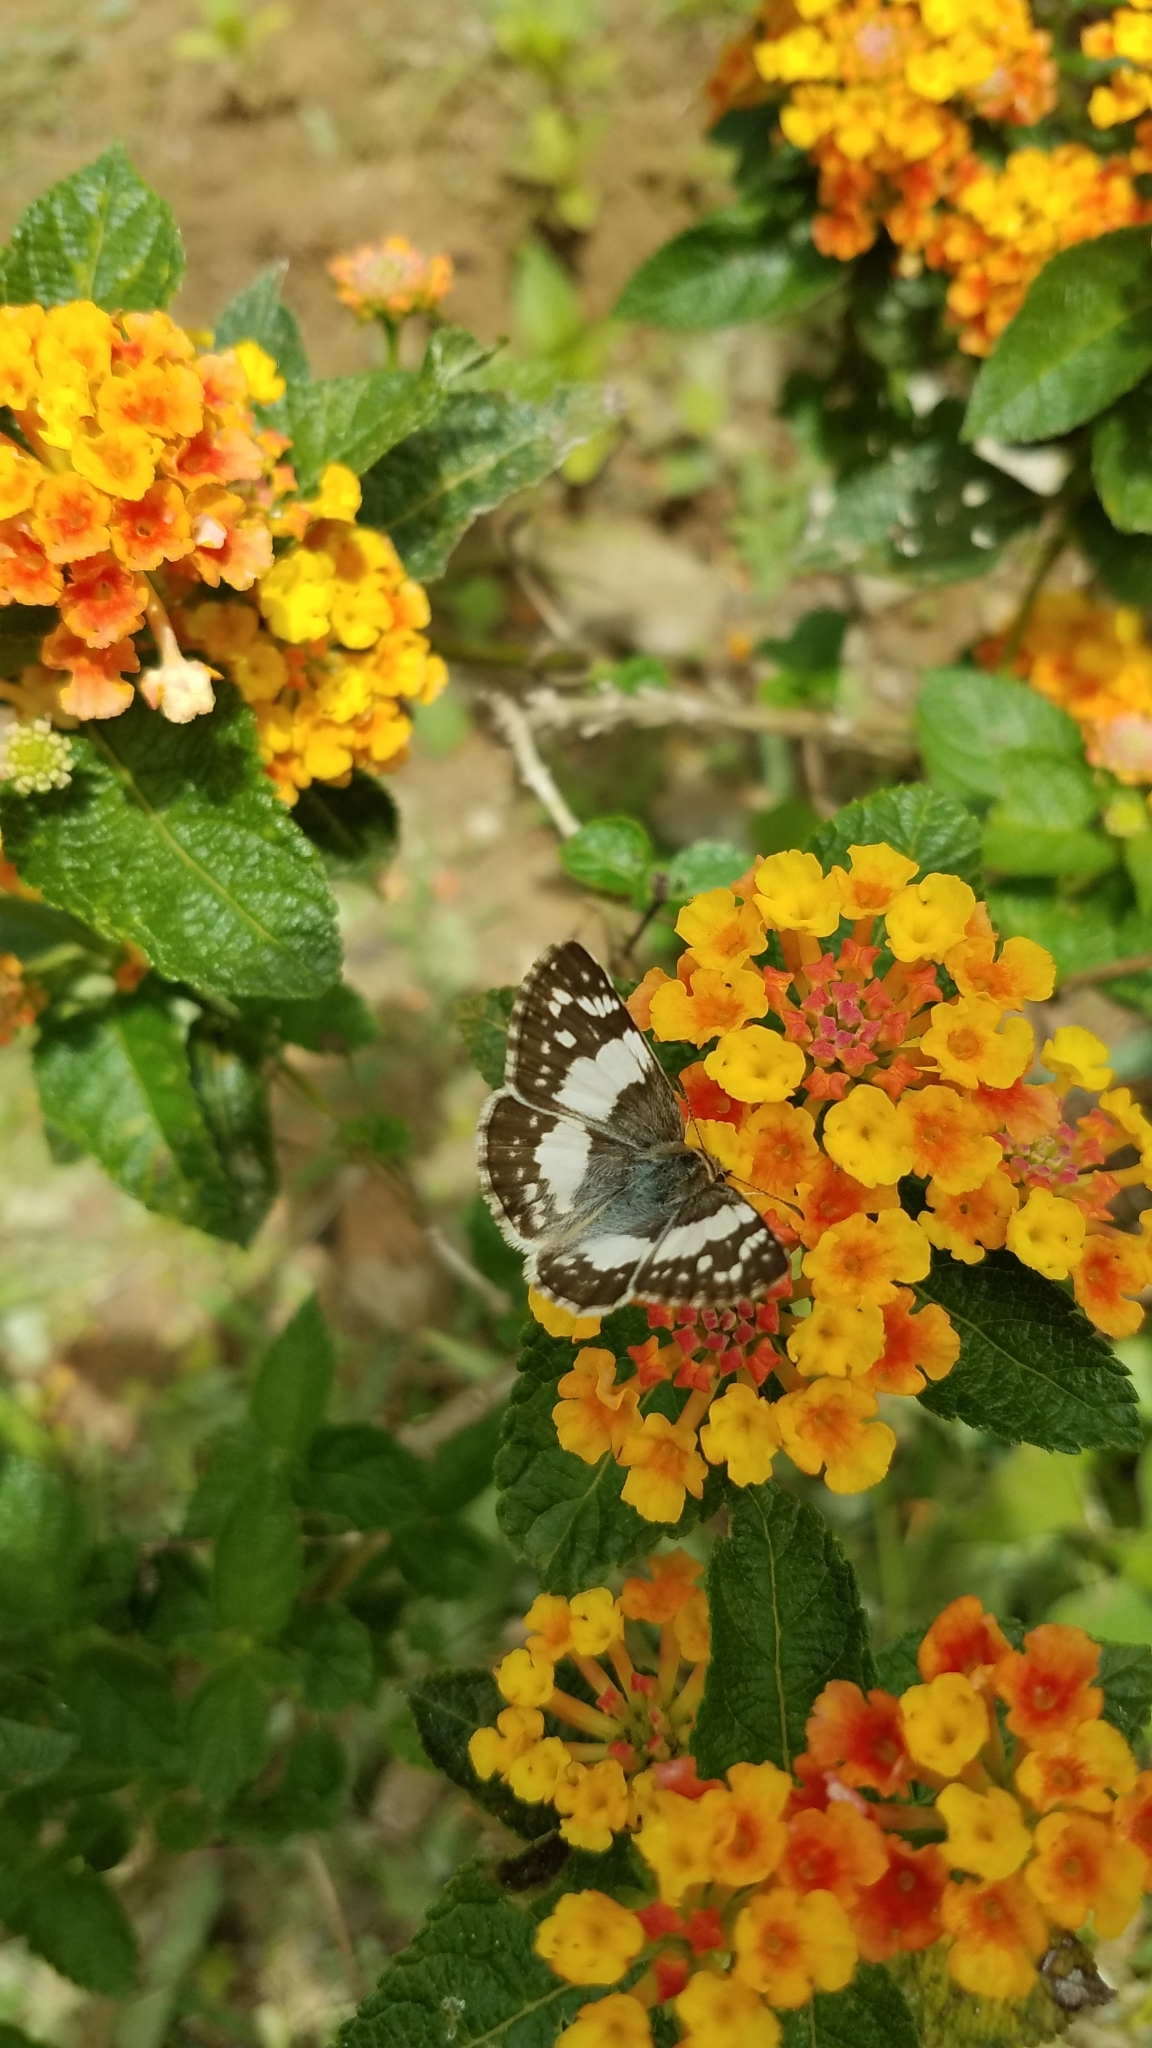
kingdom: Animalia
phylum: Arthropoda
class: Insecta
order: Lepidoptera
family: Hesperiidae
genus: Heliopyrgus
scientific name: Heliopyrgus domicella
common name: Erichson's white skipper
